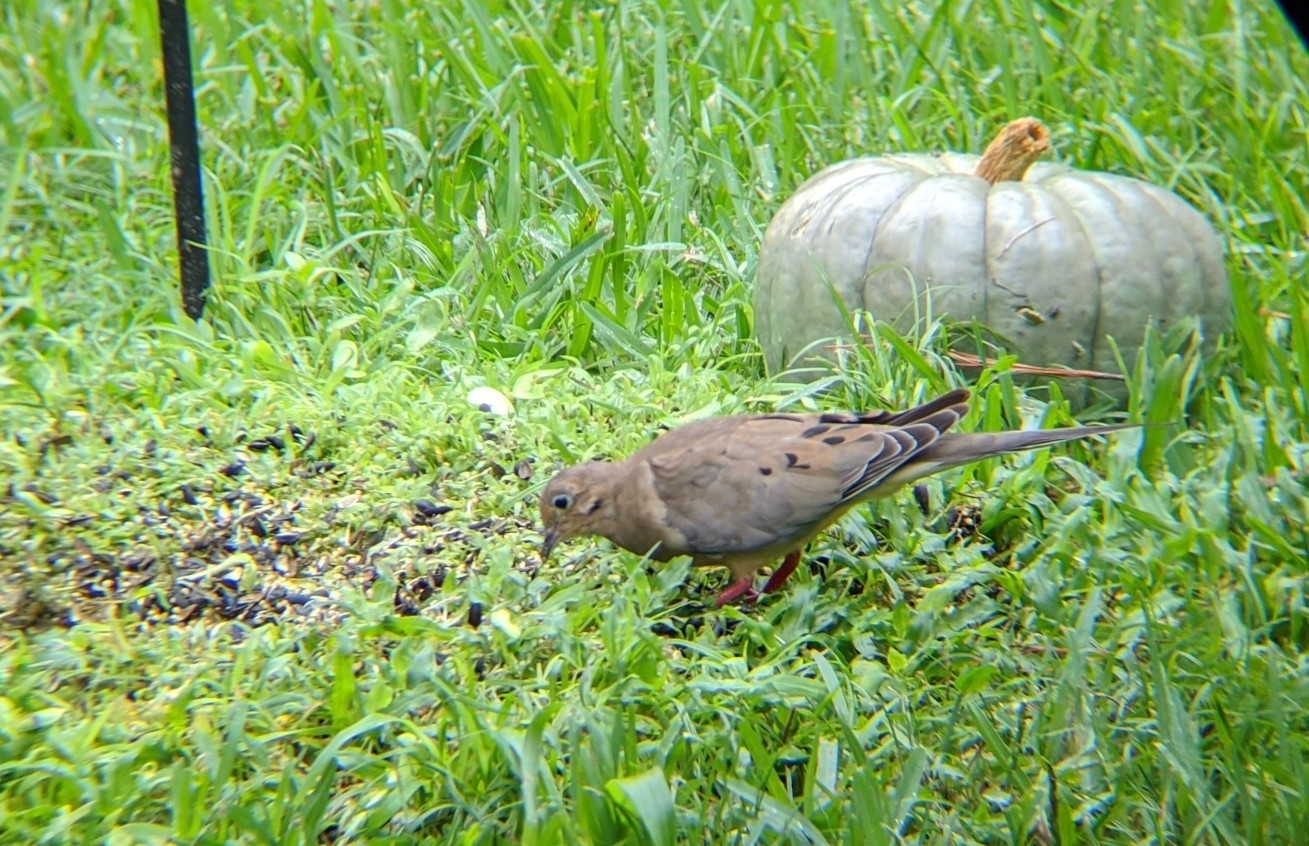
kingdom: Animalia
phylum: Chordata
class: Aves
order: Columbiformes
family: Columbidae
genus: Zenaida
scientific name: Zenaida macroura
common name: Mourning dove
